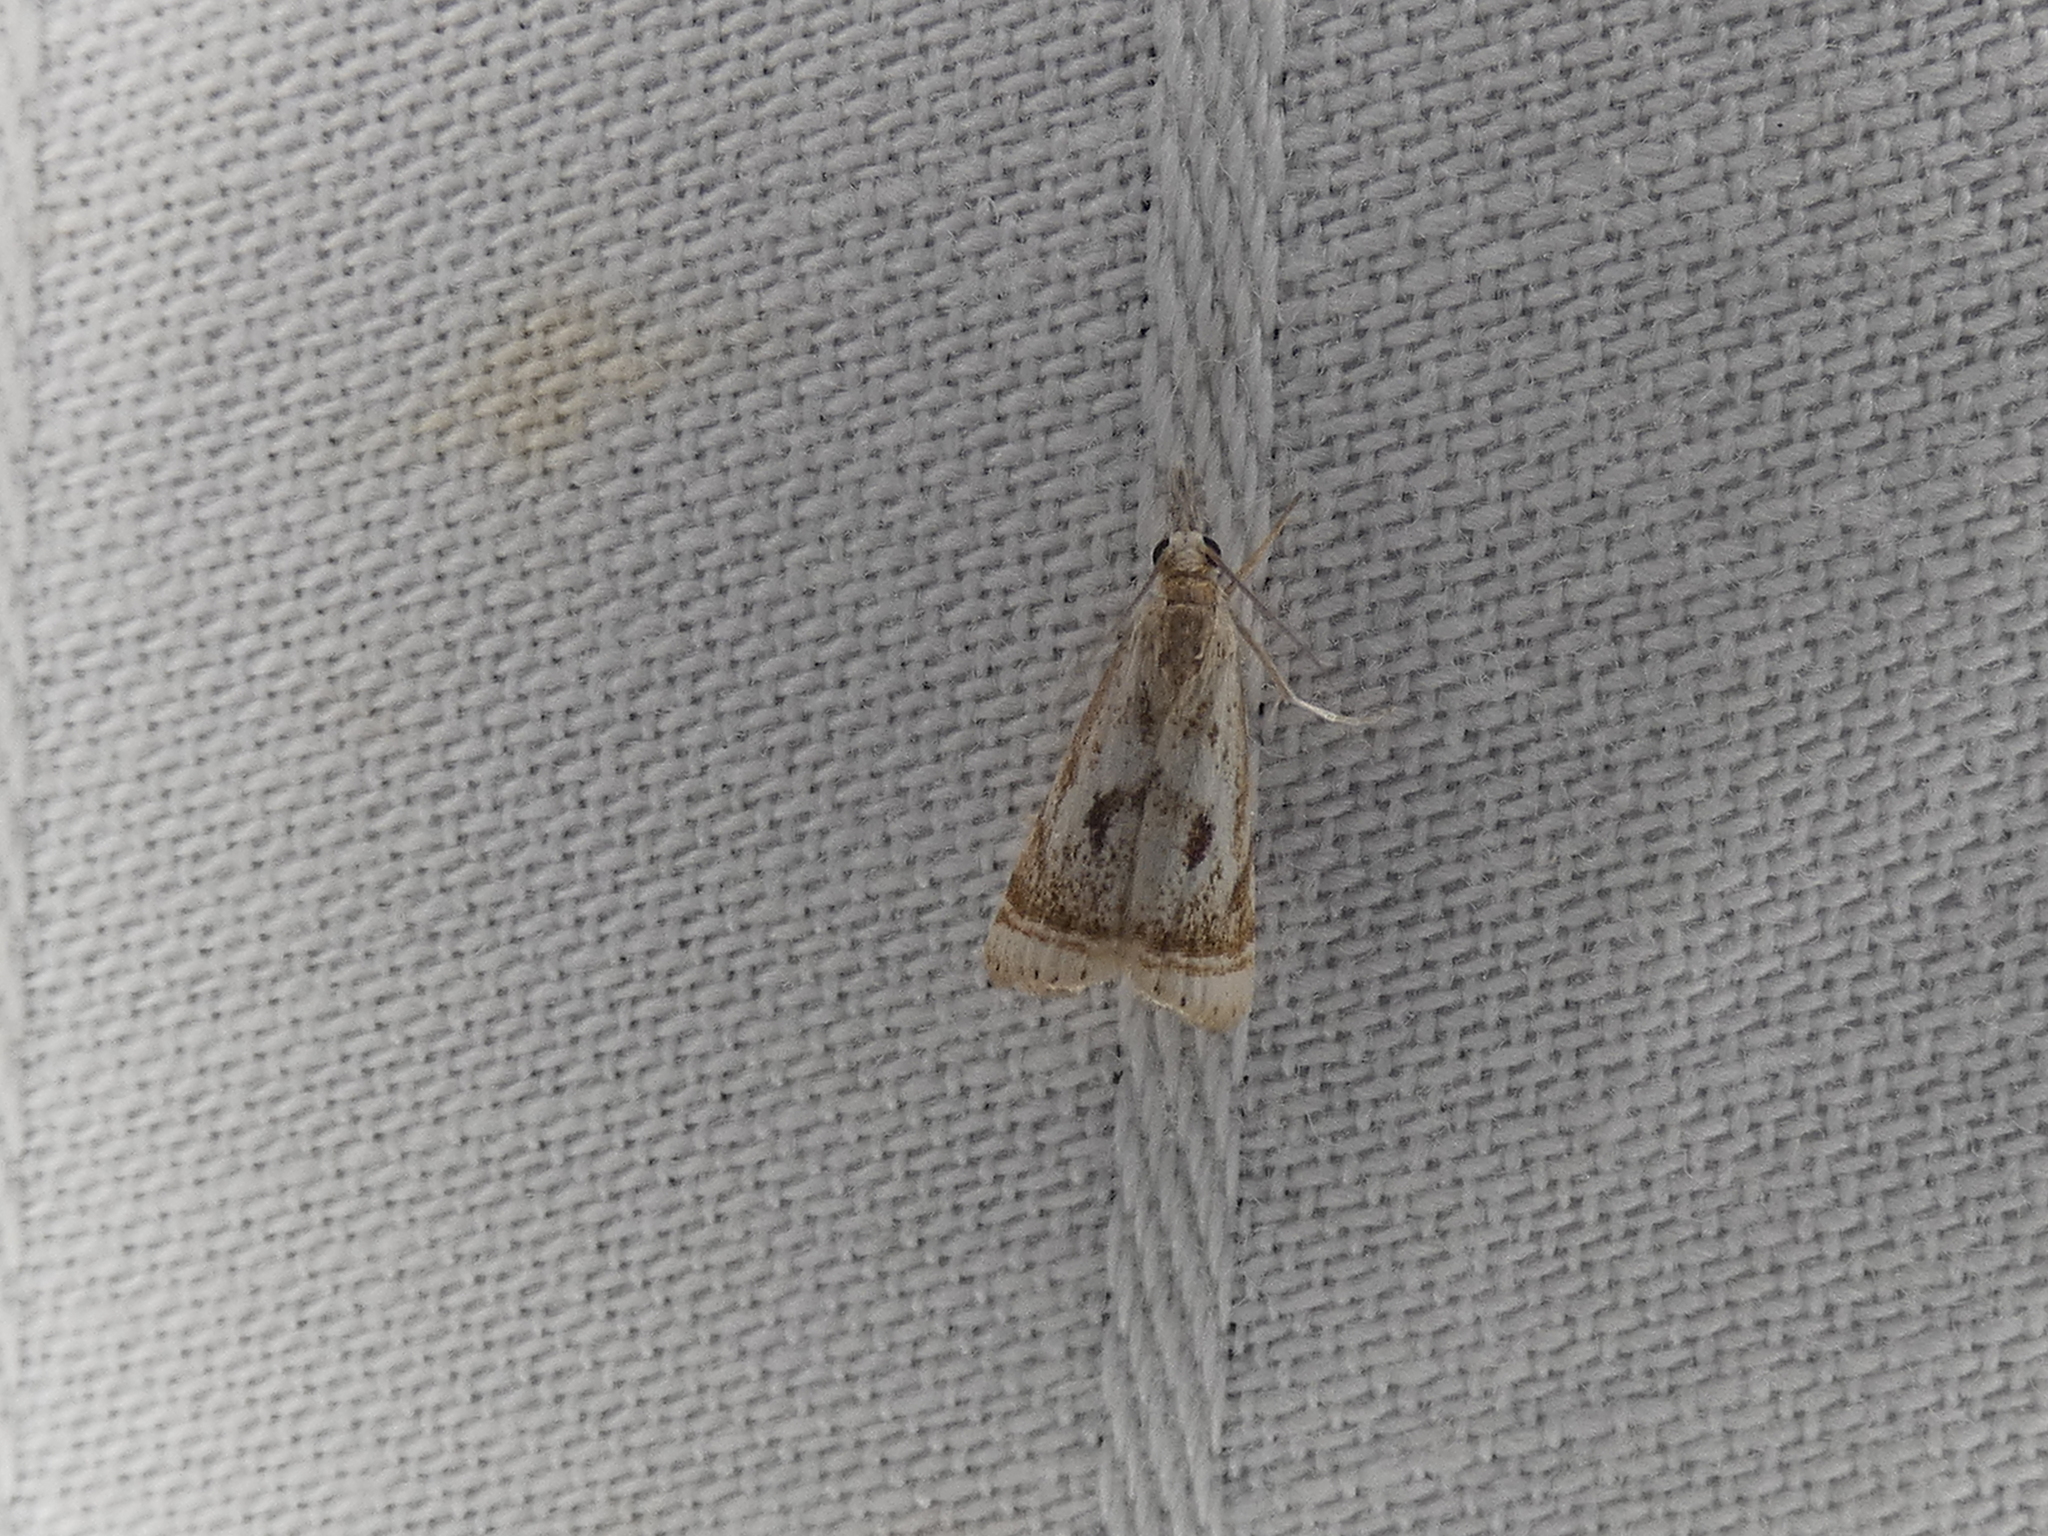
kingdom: Animalia
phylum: Arthropoda
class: Insecta
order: Lepidoptera
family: Crambidae
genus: Microcrambus
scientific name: Microcrambus elegans
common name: Elegant grass-veneer
